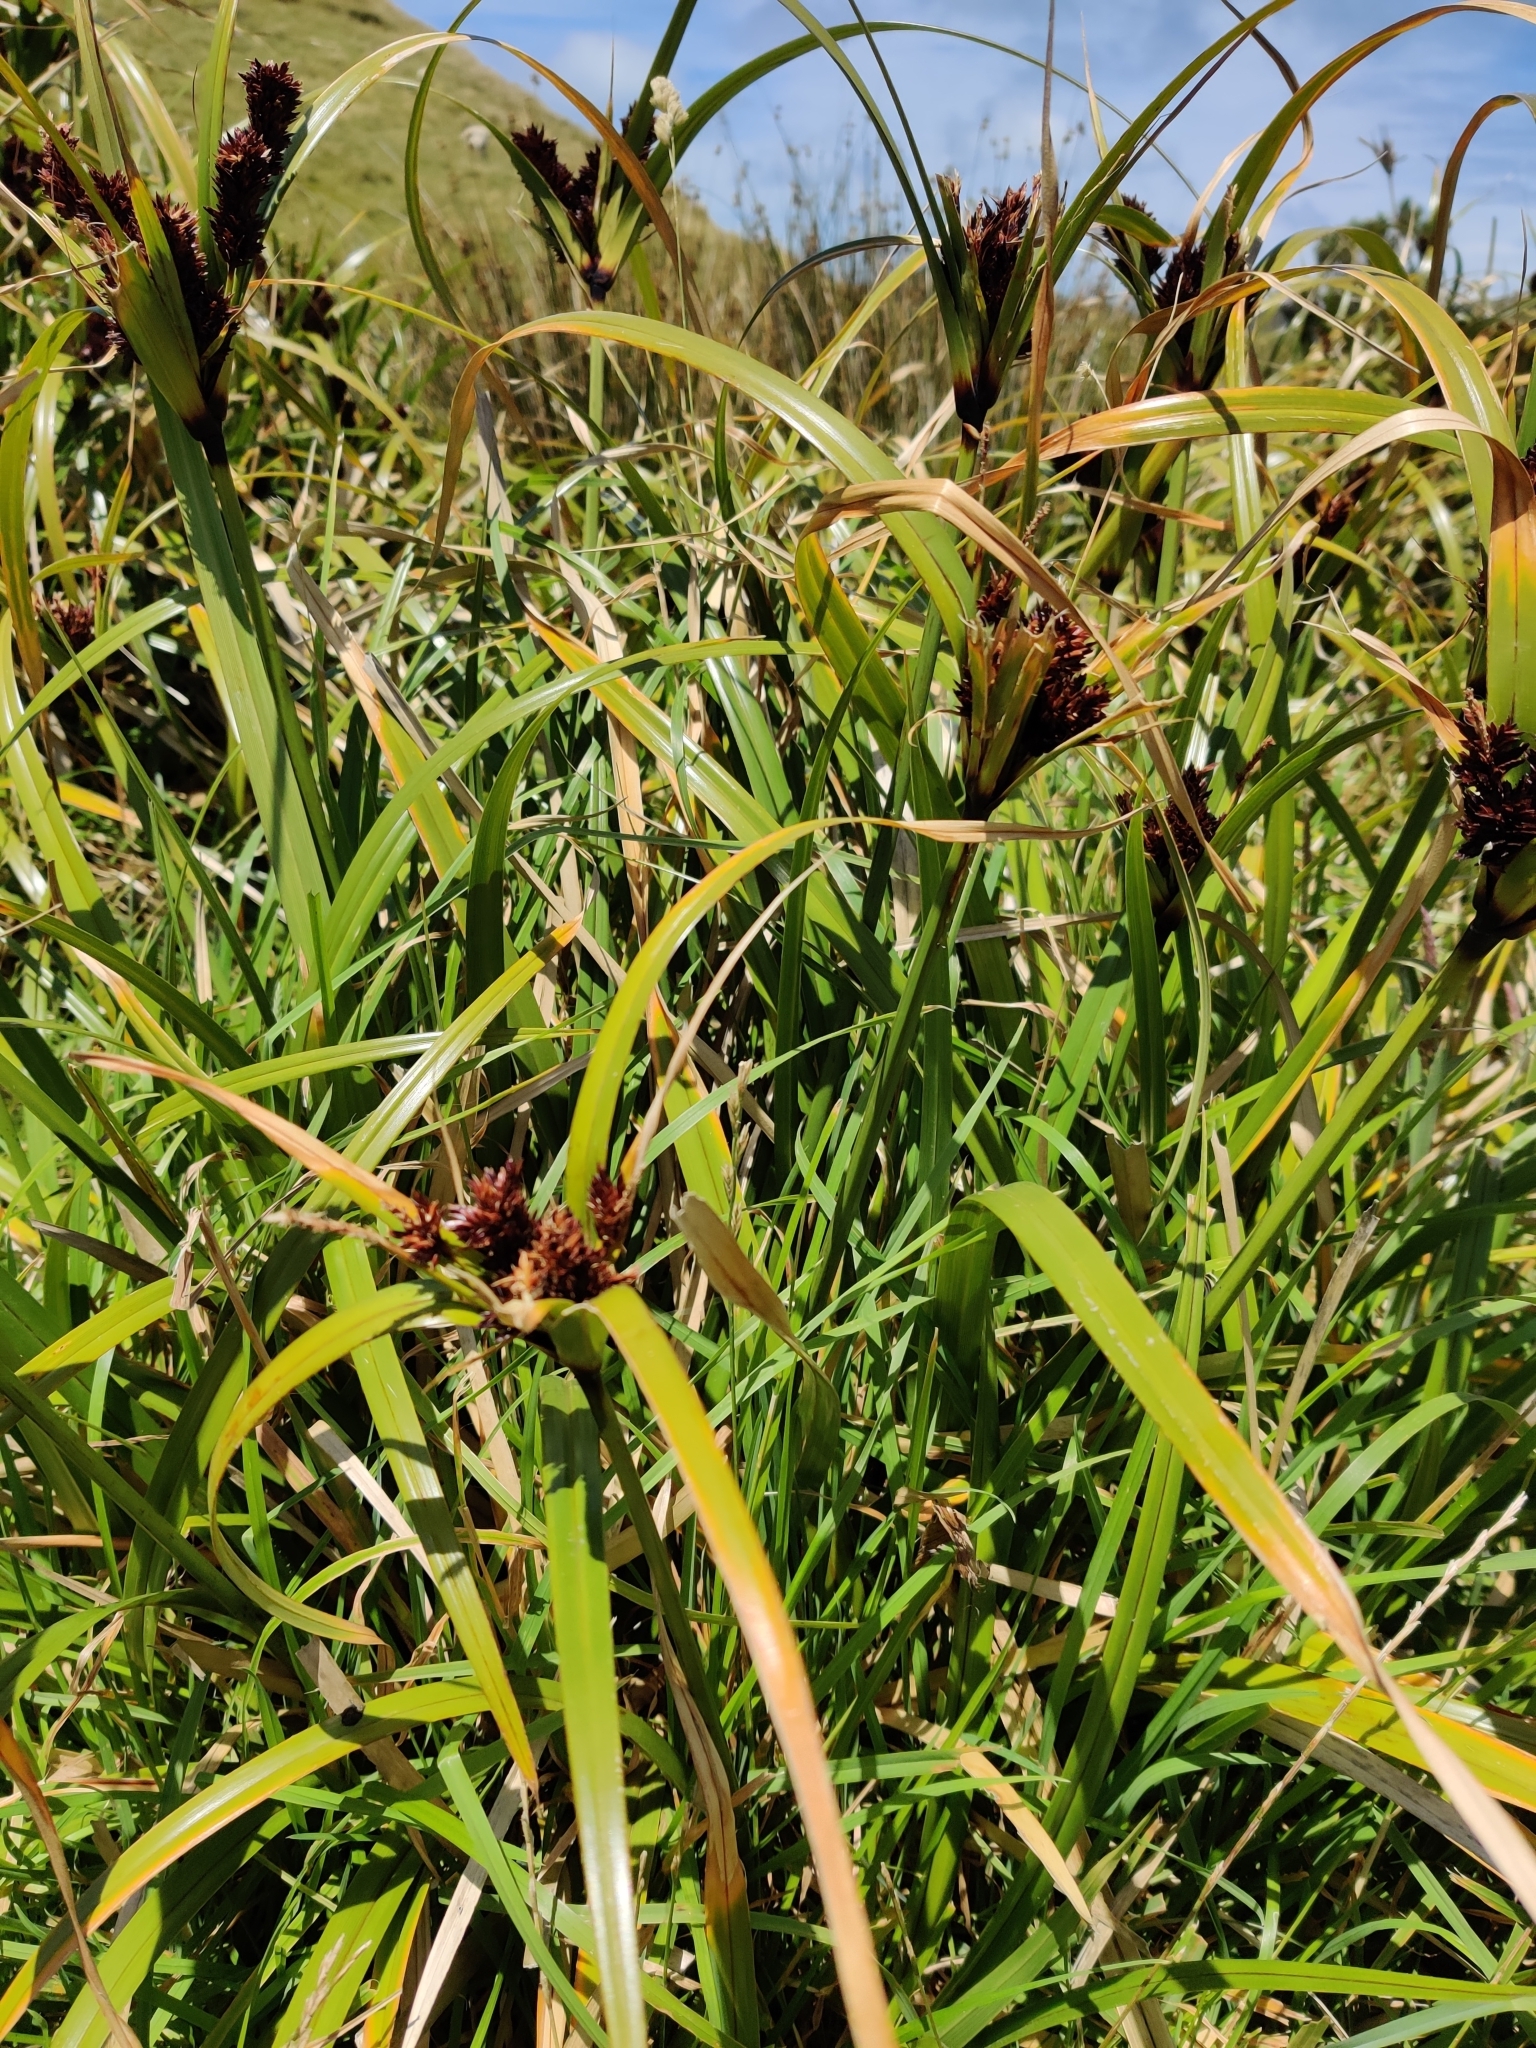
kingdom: Plantae
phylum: Tracheophyta
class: Liliopsida
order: Poales
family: Cyperaceae
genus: Cyperus
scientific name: Cyperus ustulatus
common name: Giant umbrella-sedge
